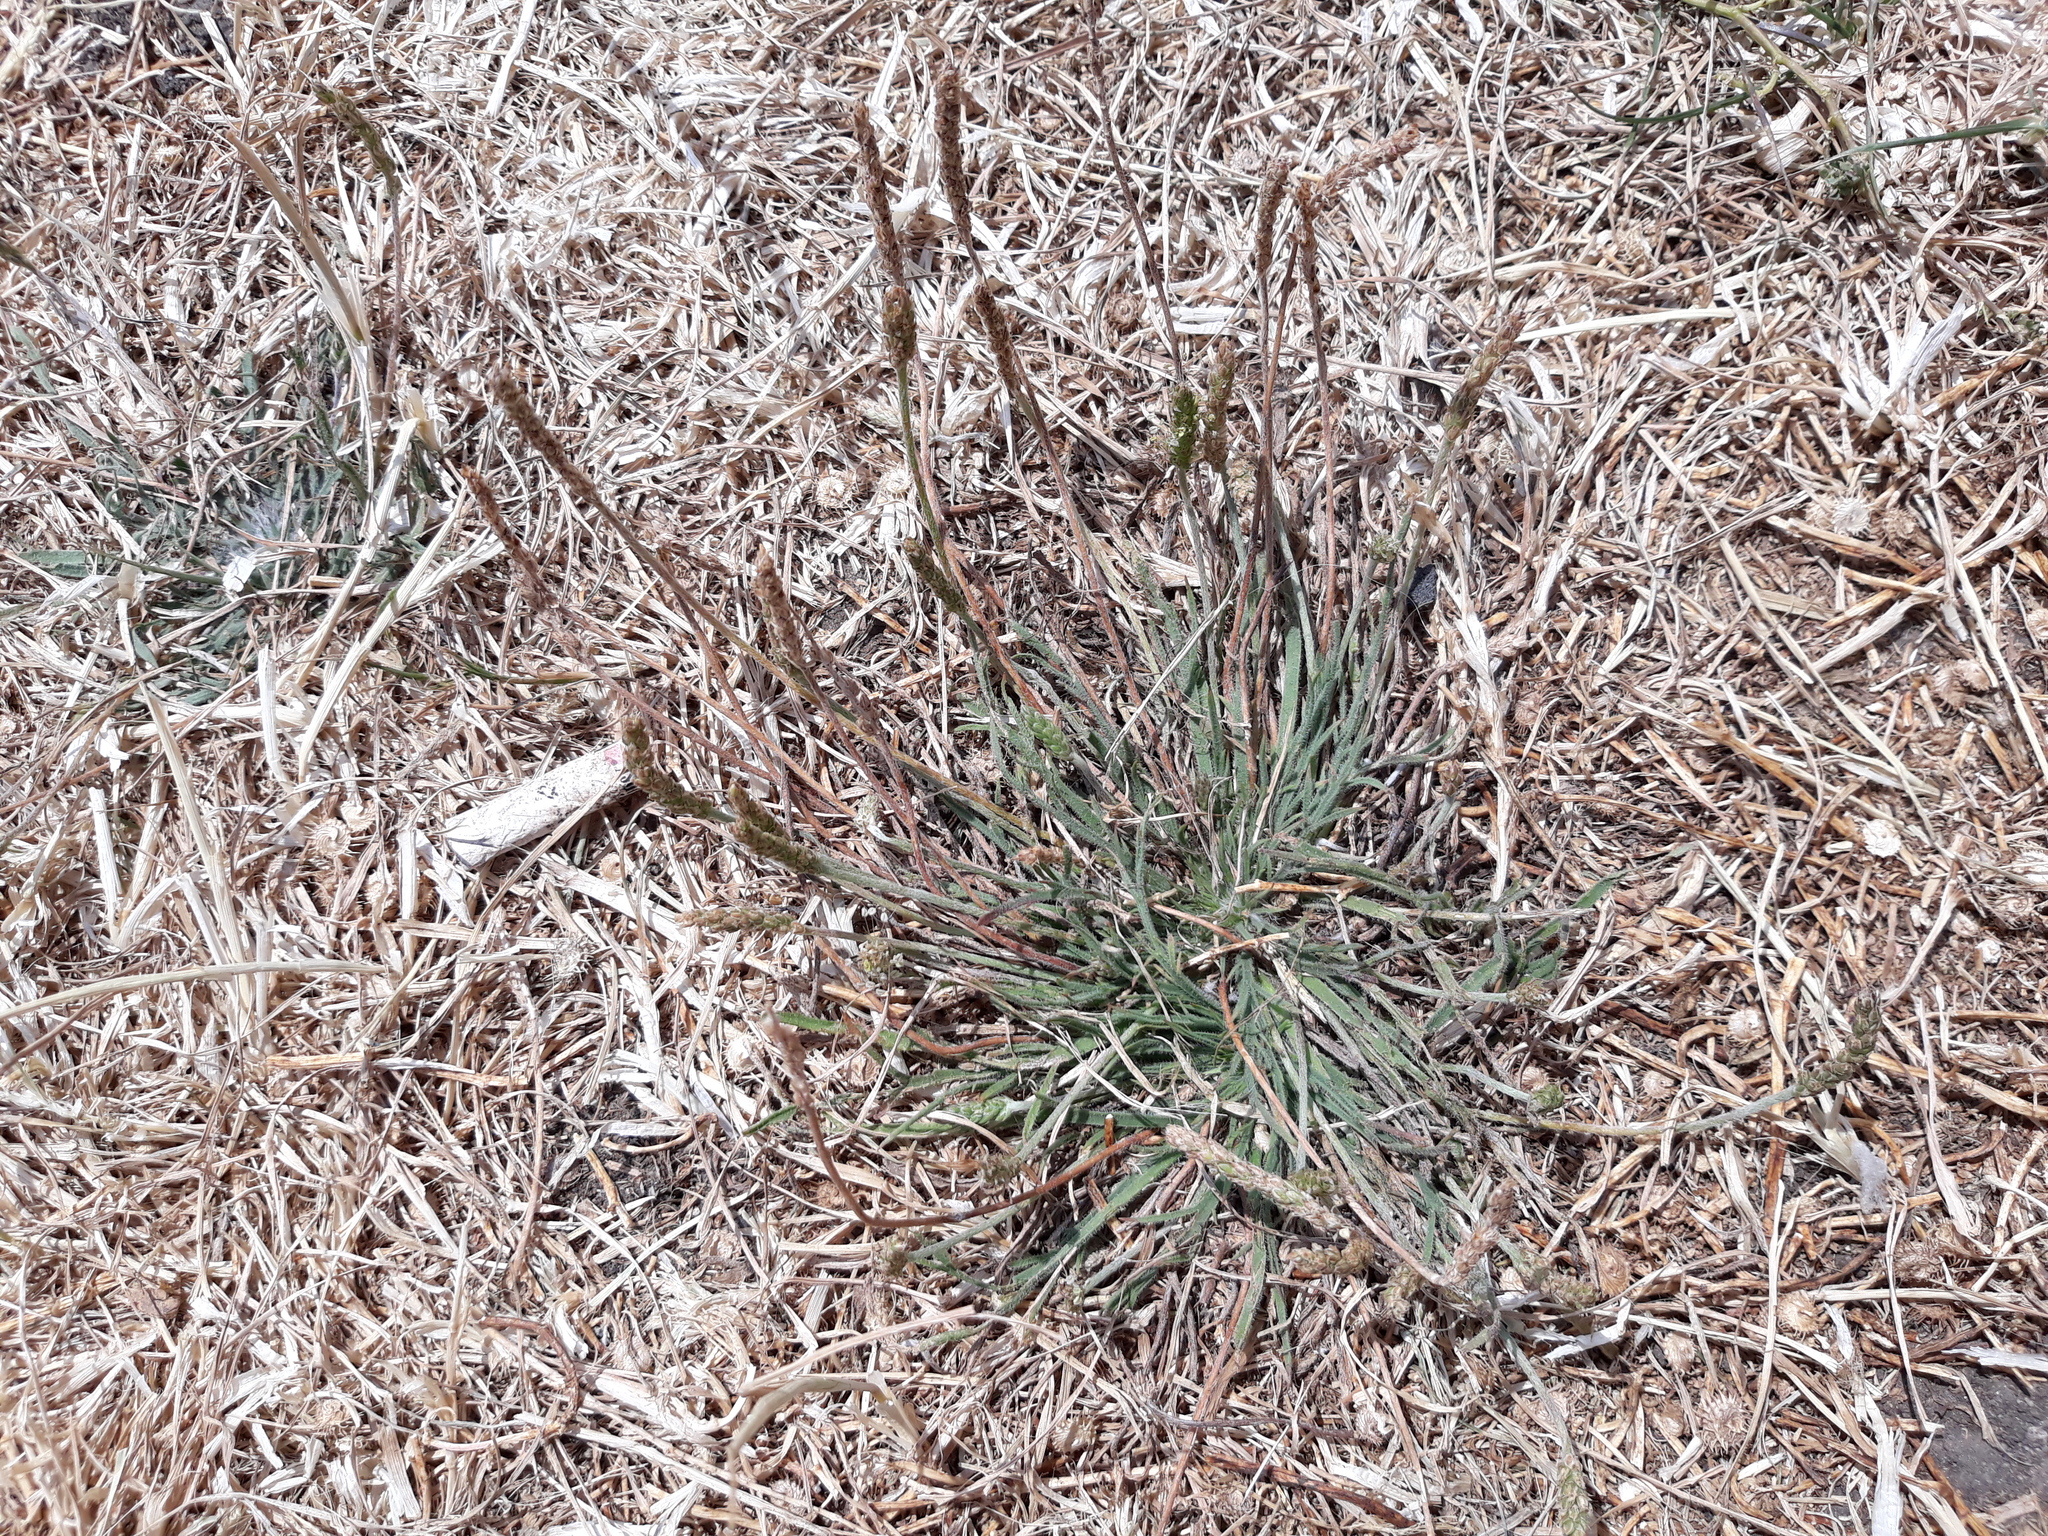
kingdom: Plantae
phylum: Tracheophyta
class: Magnoliopsida
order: Lamiales
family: Plantaginaceae
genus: Plantago
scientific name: Plantago coronopus
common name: Buck's-horn plantain
